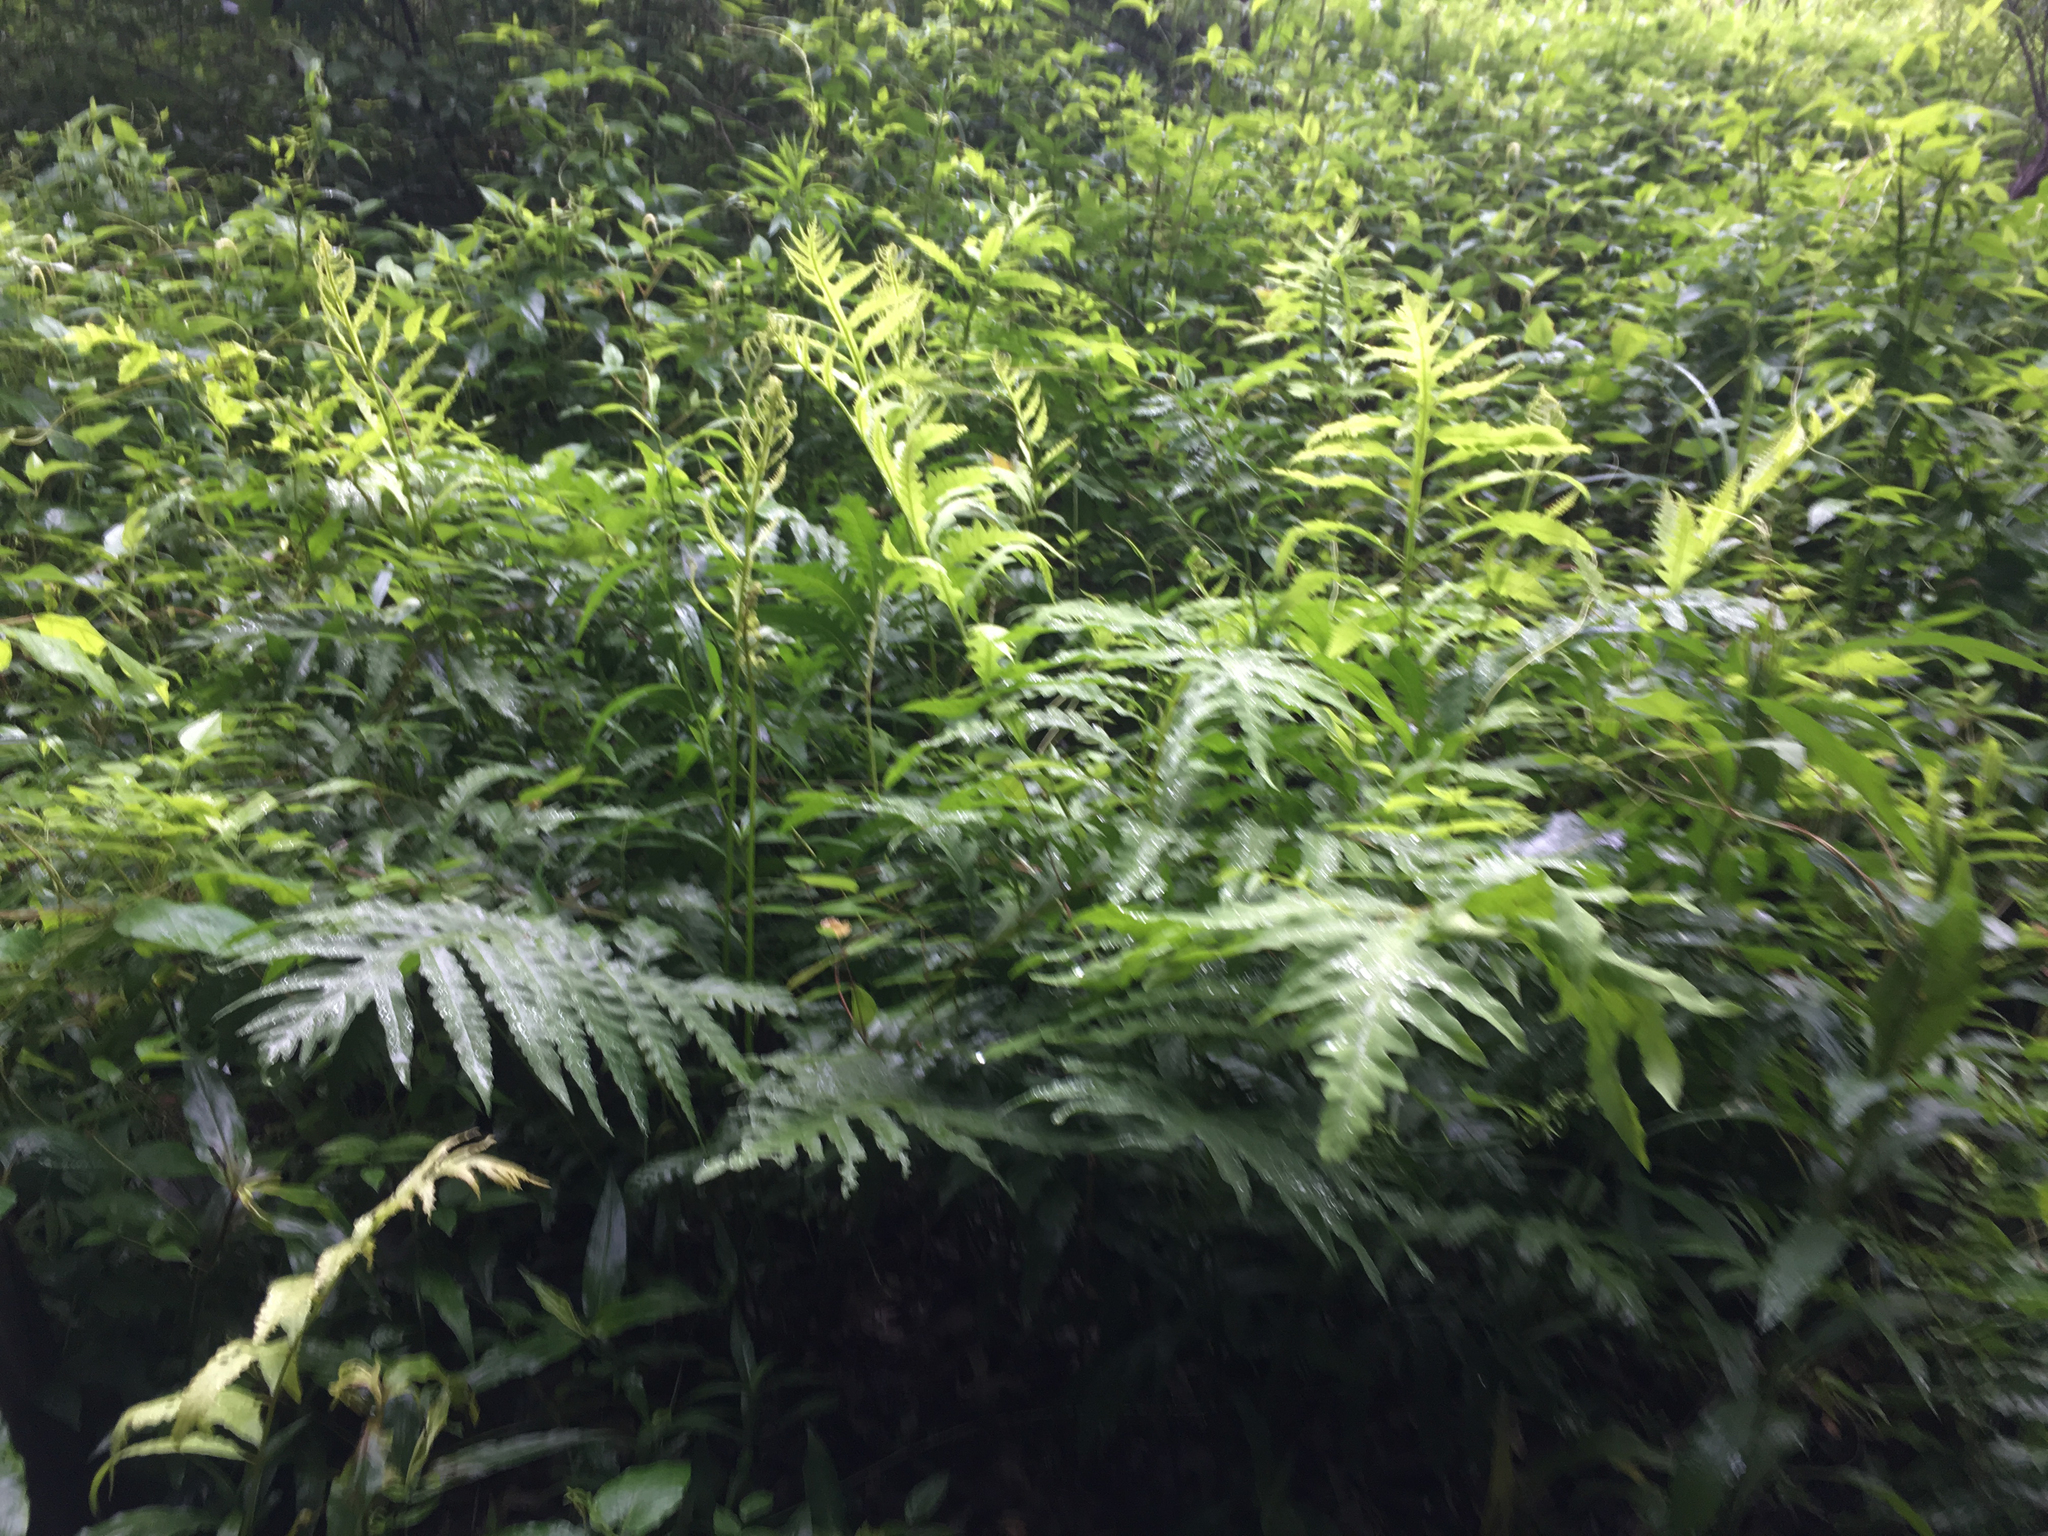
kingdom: Plantae
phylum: Tracheophyta
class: Polypodiopsida
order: Polypodiales
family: Onocleaceae
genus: Onoclea
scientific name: Onoclea sensibilis
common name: Sensitive fern
